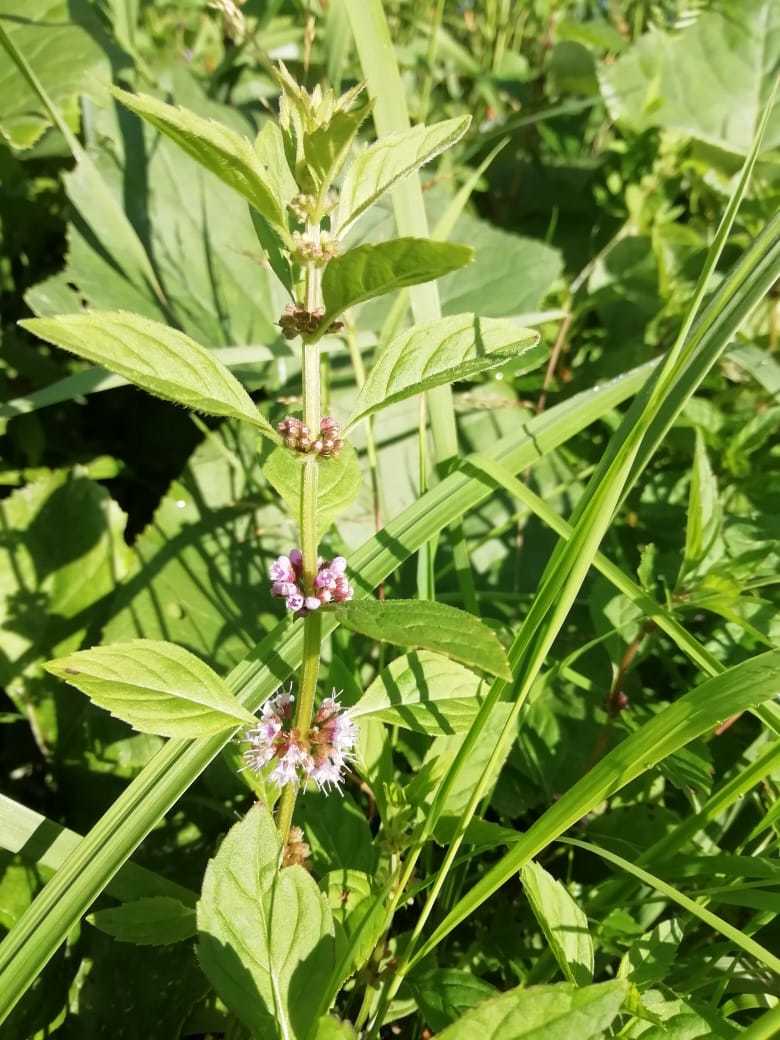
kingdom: Plantae
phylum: Tracheophyta
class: Magnoliopsida
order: Lamiales
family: Lamiaceae
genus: Mentha
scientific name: Mentha arvensis
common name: Corn mint
